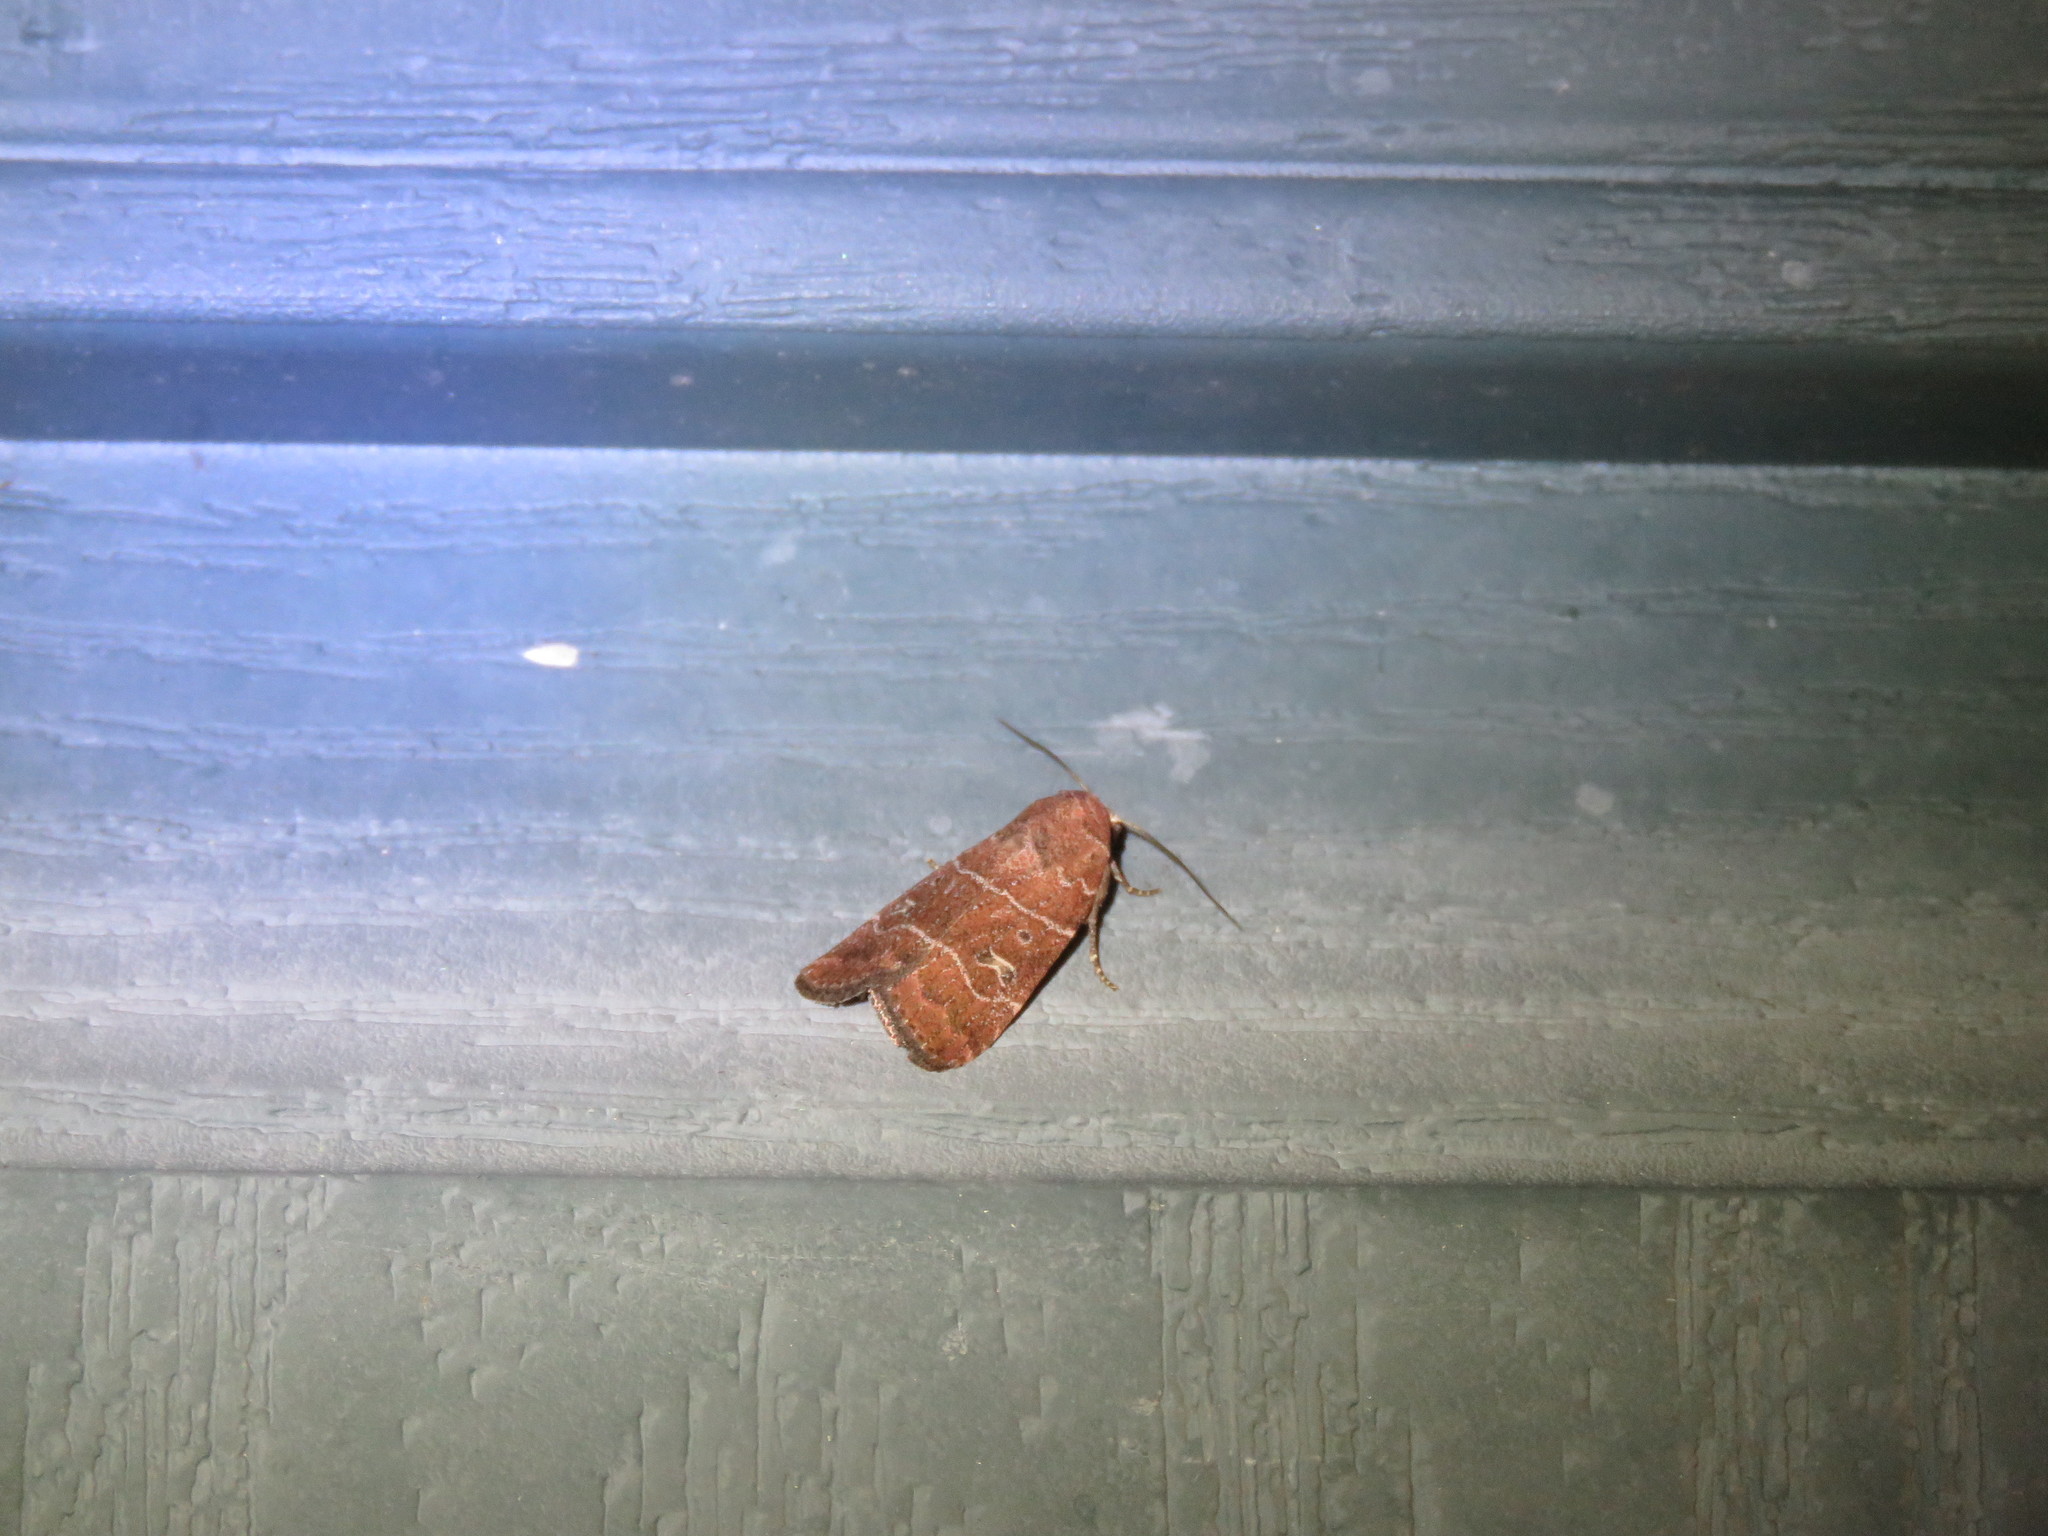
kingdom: Animalia
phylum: Arthropoda
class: Insecta
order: Lepidoptera
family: Noctuidae
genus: Elaphria
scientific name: Elaphria grata
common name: Grateful midget moth
